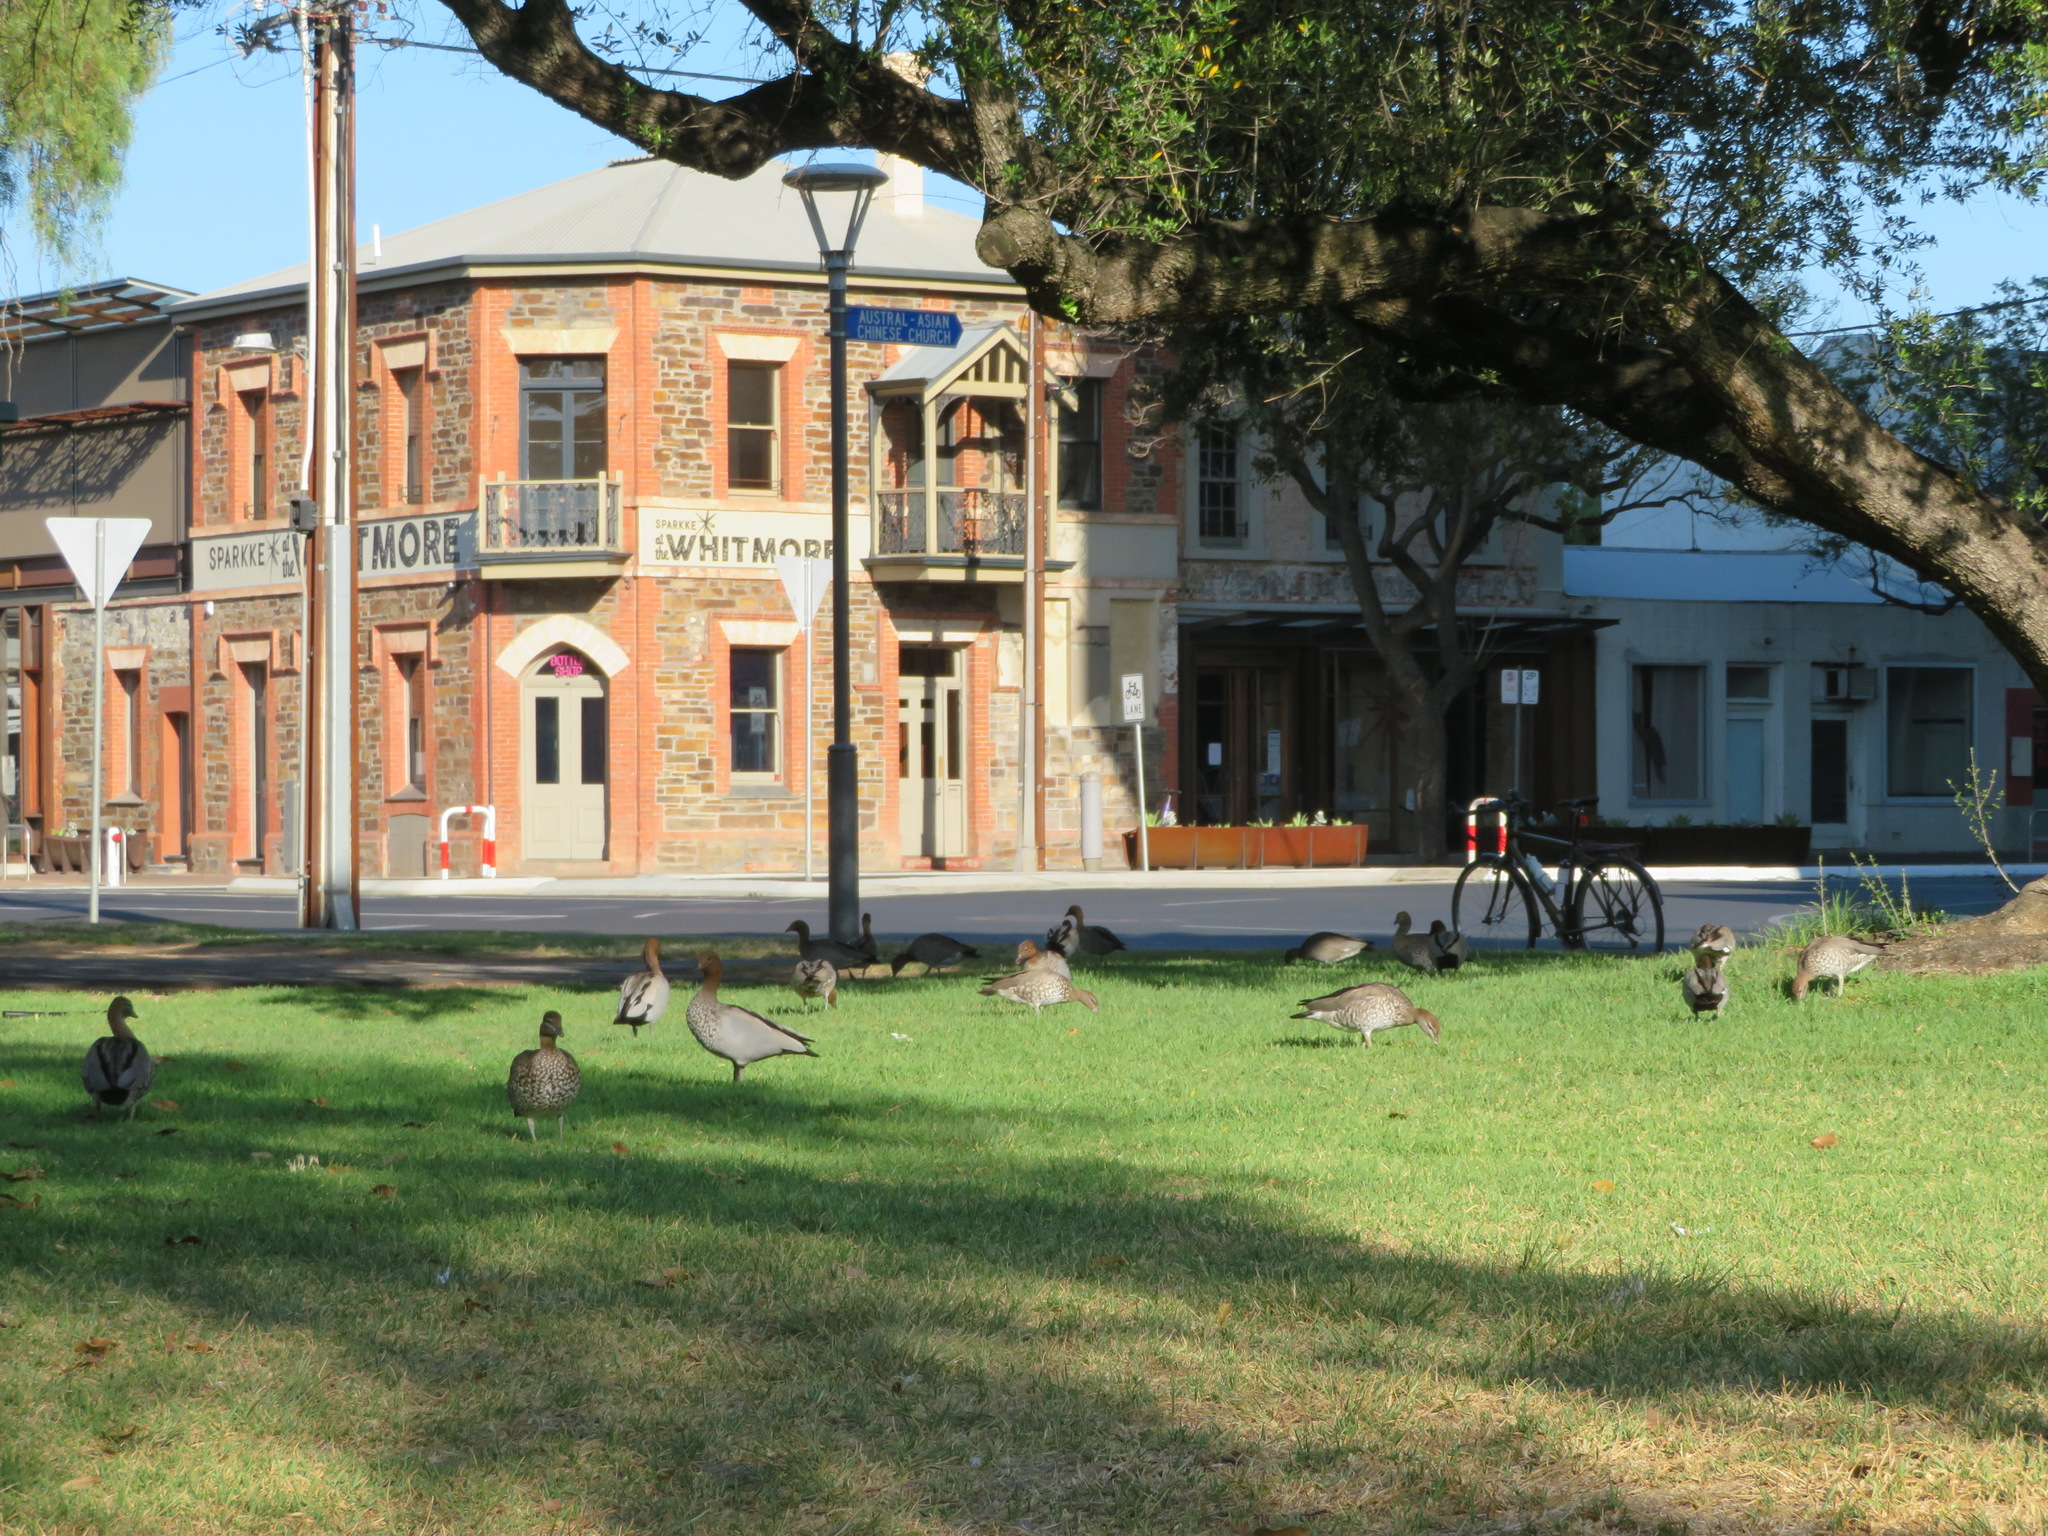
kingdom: Animalia
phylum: Chordata
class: Aves
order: Anseriformes
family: Anatidae
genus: Chenonetta
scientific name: Chenonetta jubata
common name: Maned duck
